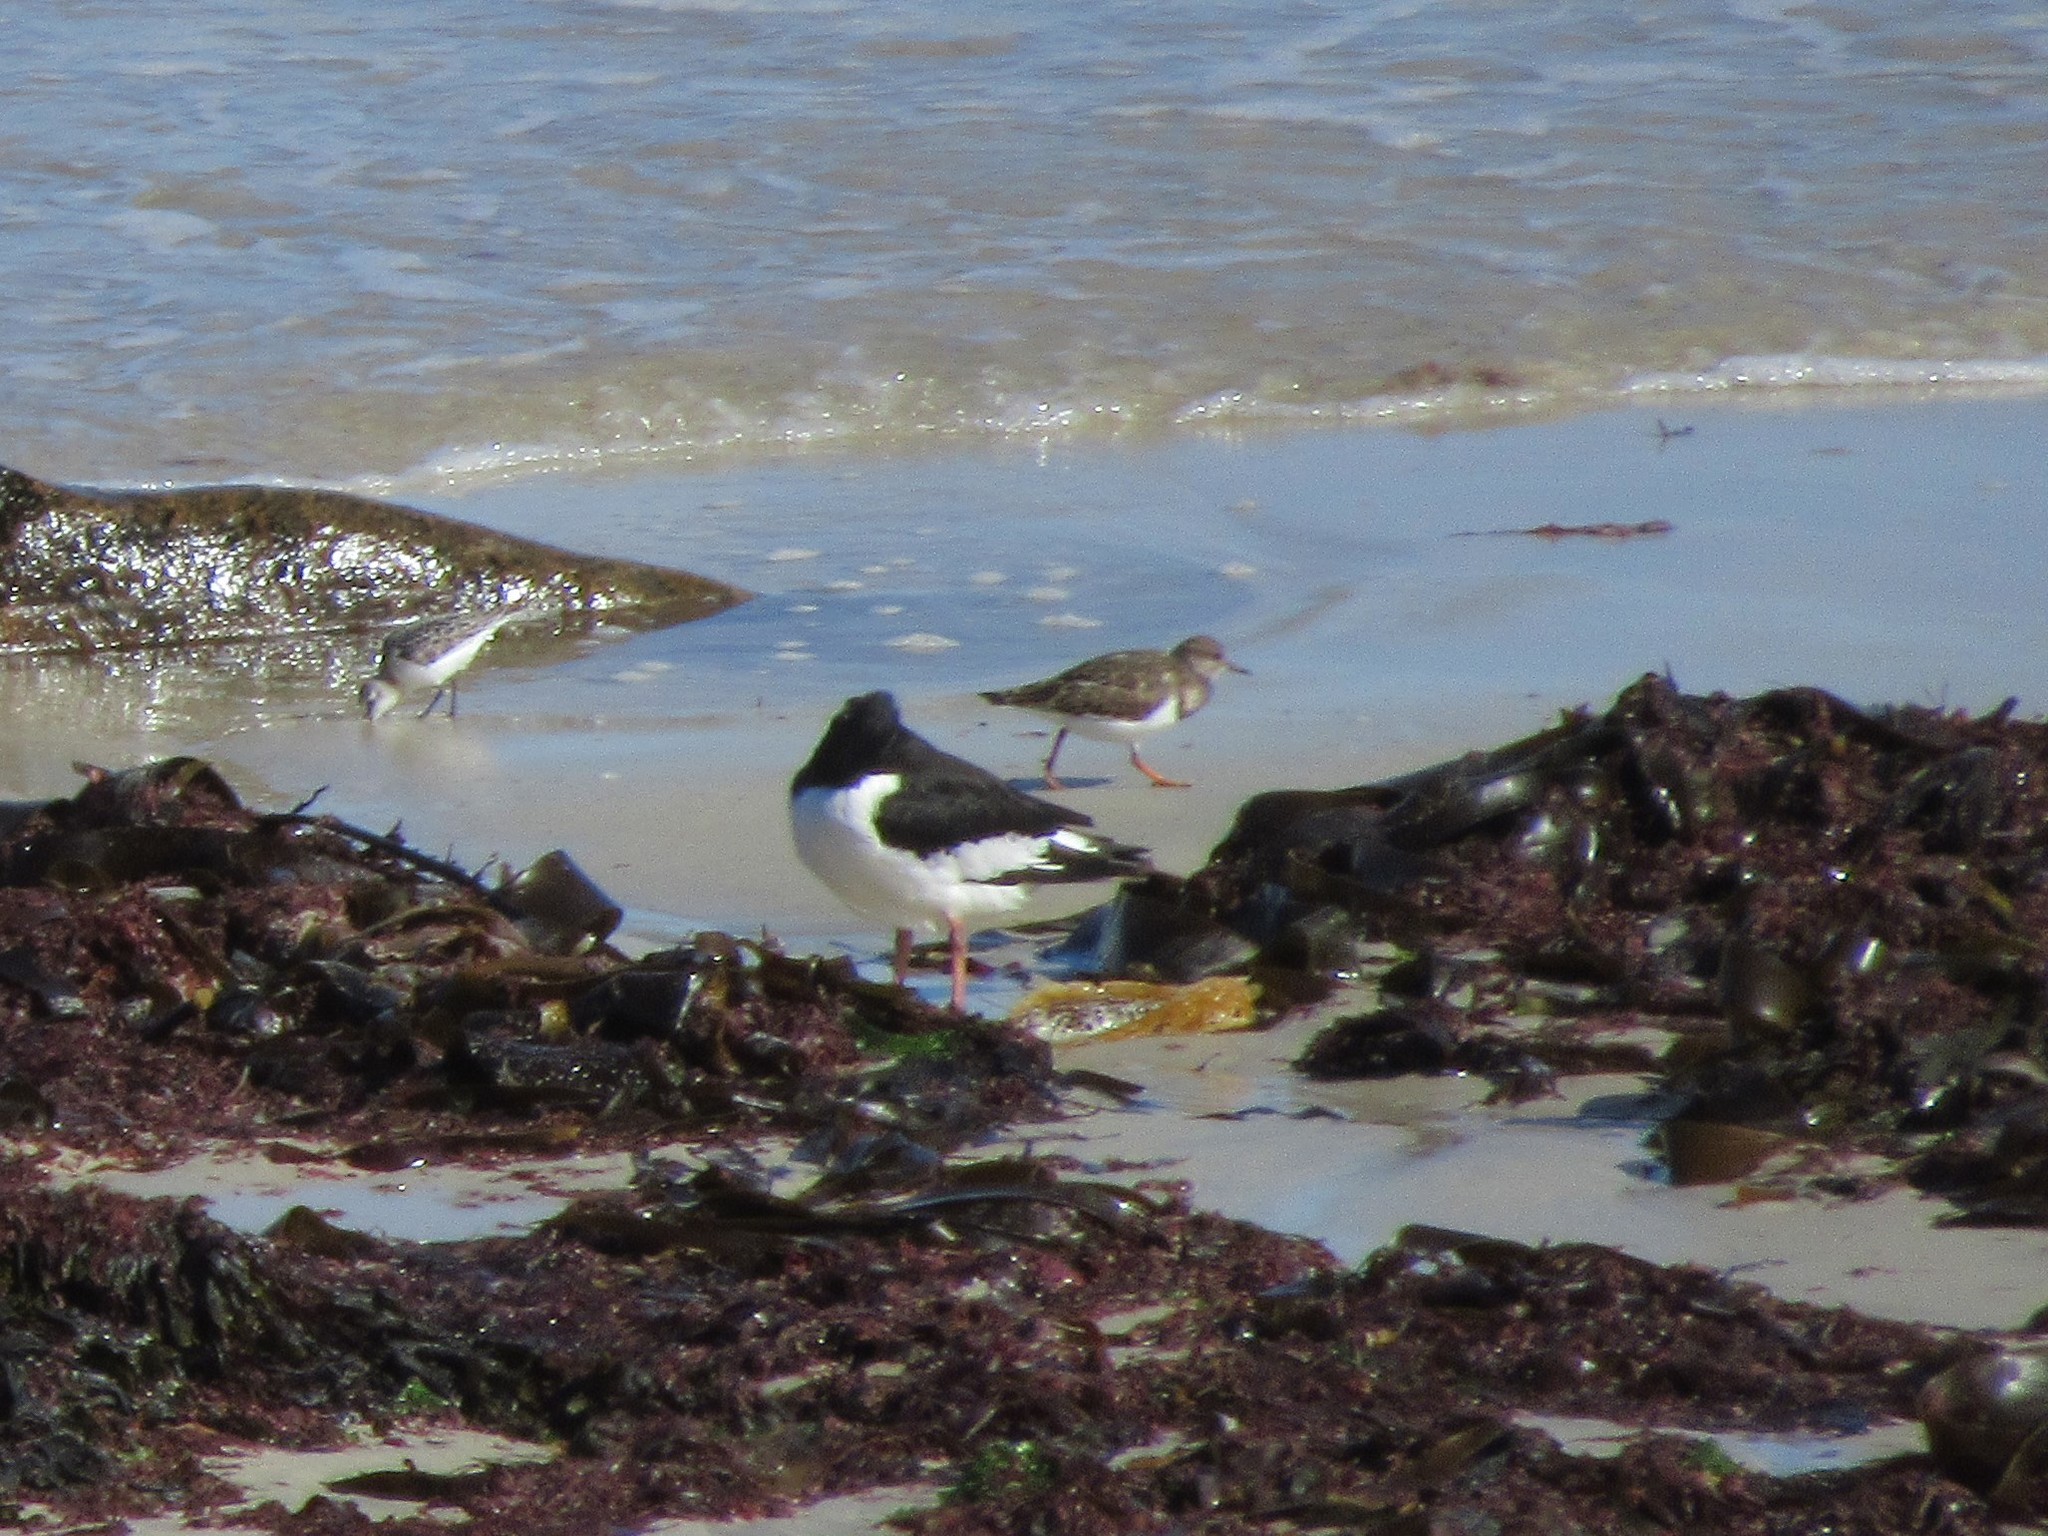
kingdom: Animalia
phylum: Chordata
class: Aves
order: Charadriiformes
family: Scolopacidae
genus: Arenaria
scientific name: Arenaria interpres
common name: Ruddy turnstone
